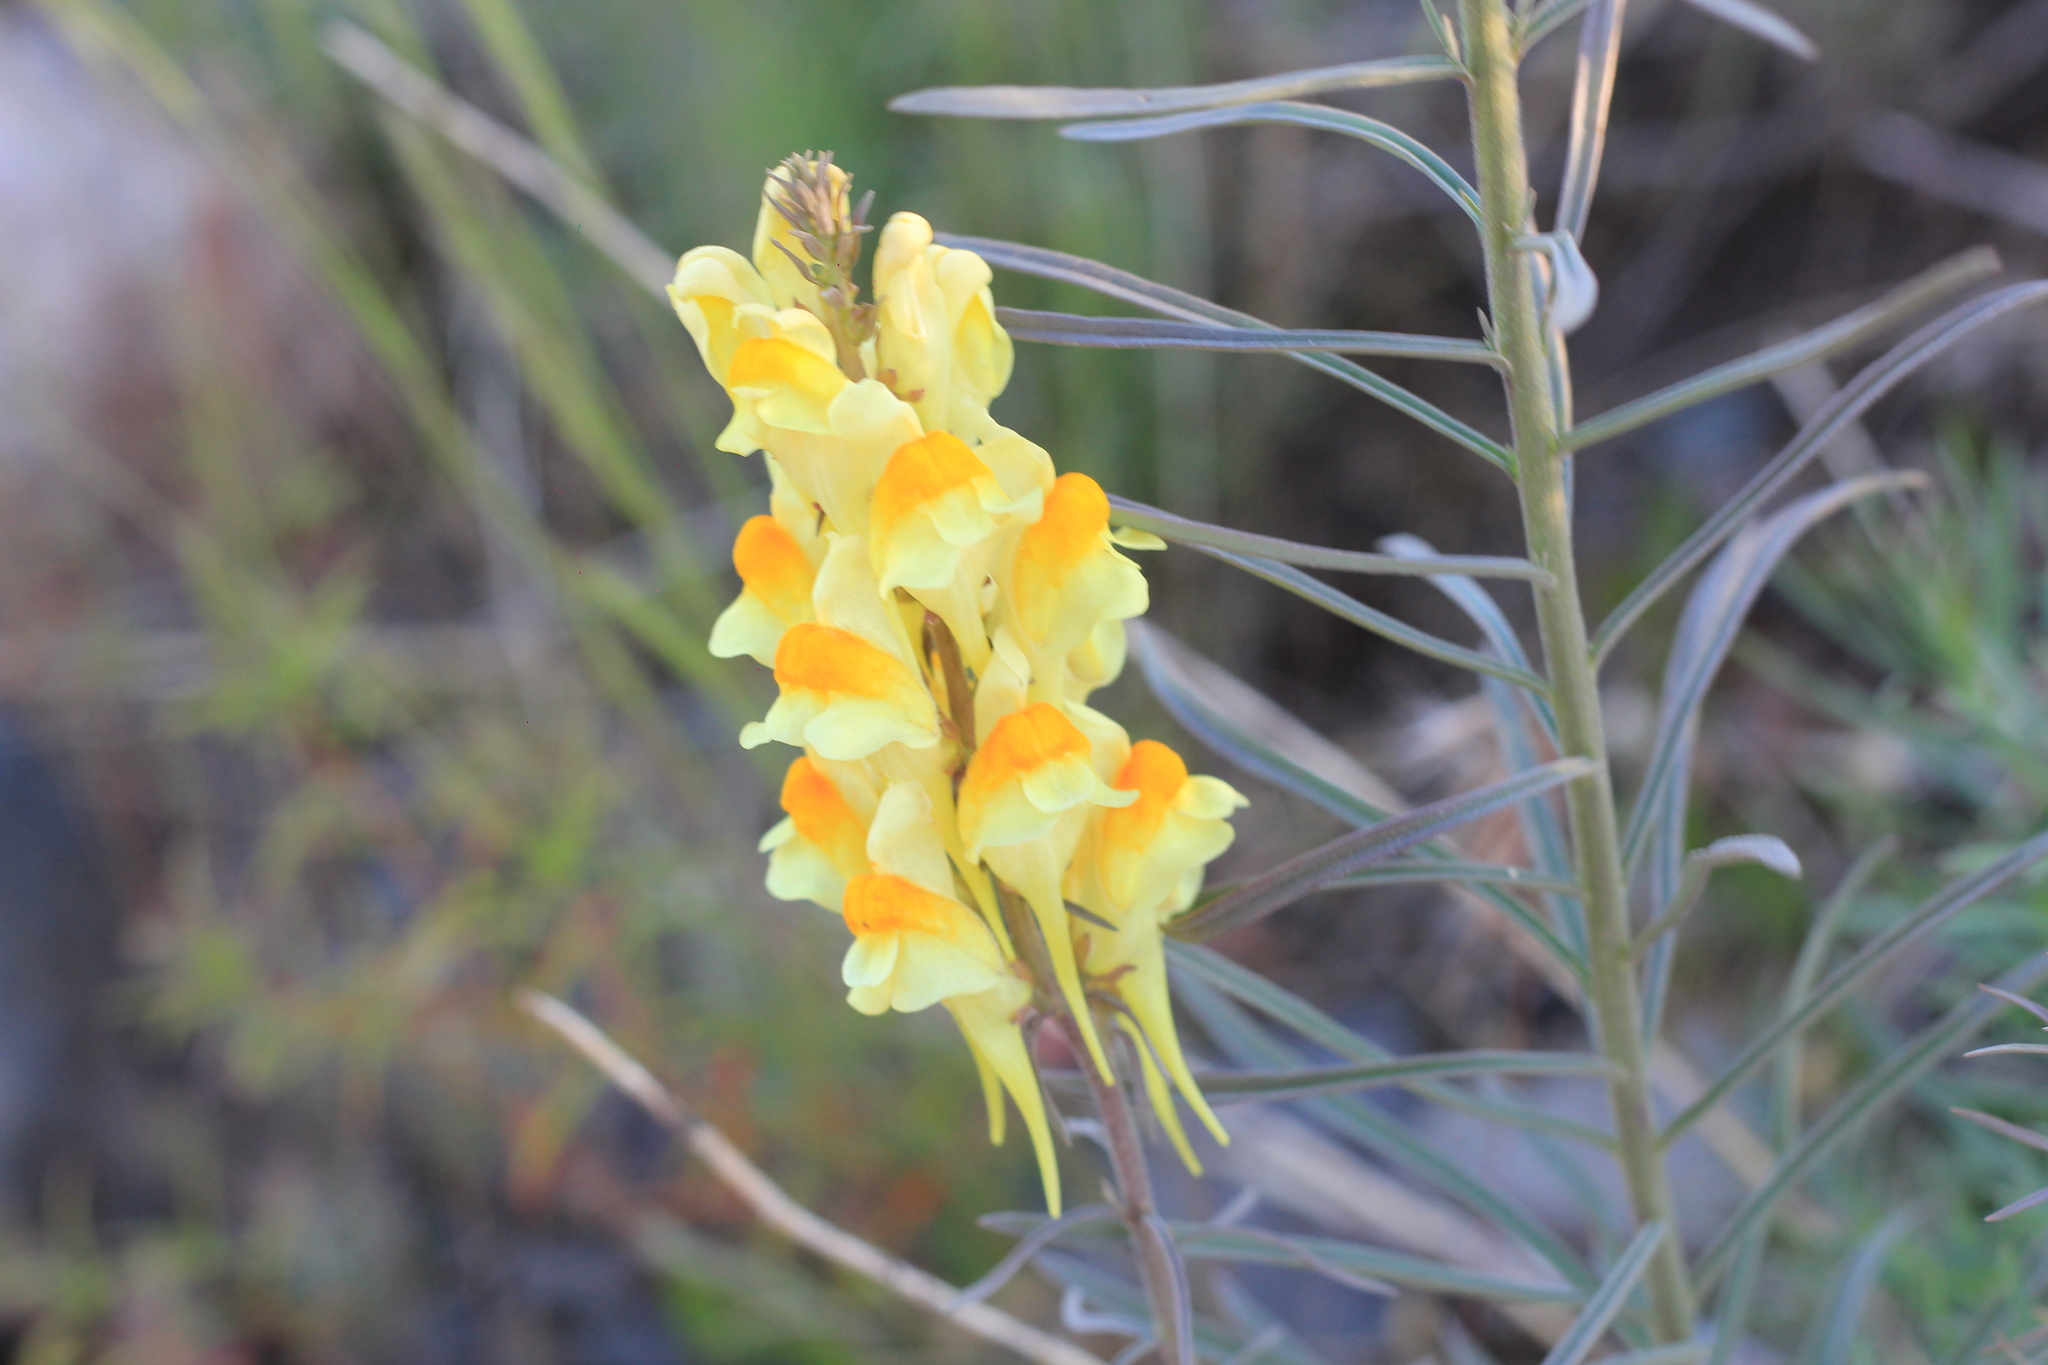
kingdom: Plantae
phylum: Tracheophyta
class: Magnoliopsida
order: Lamiales
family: Plantaginaceae
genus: Linaria
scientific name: Linaria vulgaris
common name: Butter and eggs
